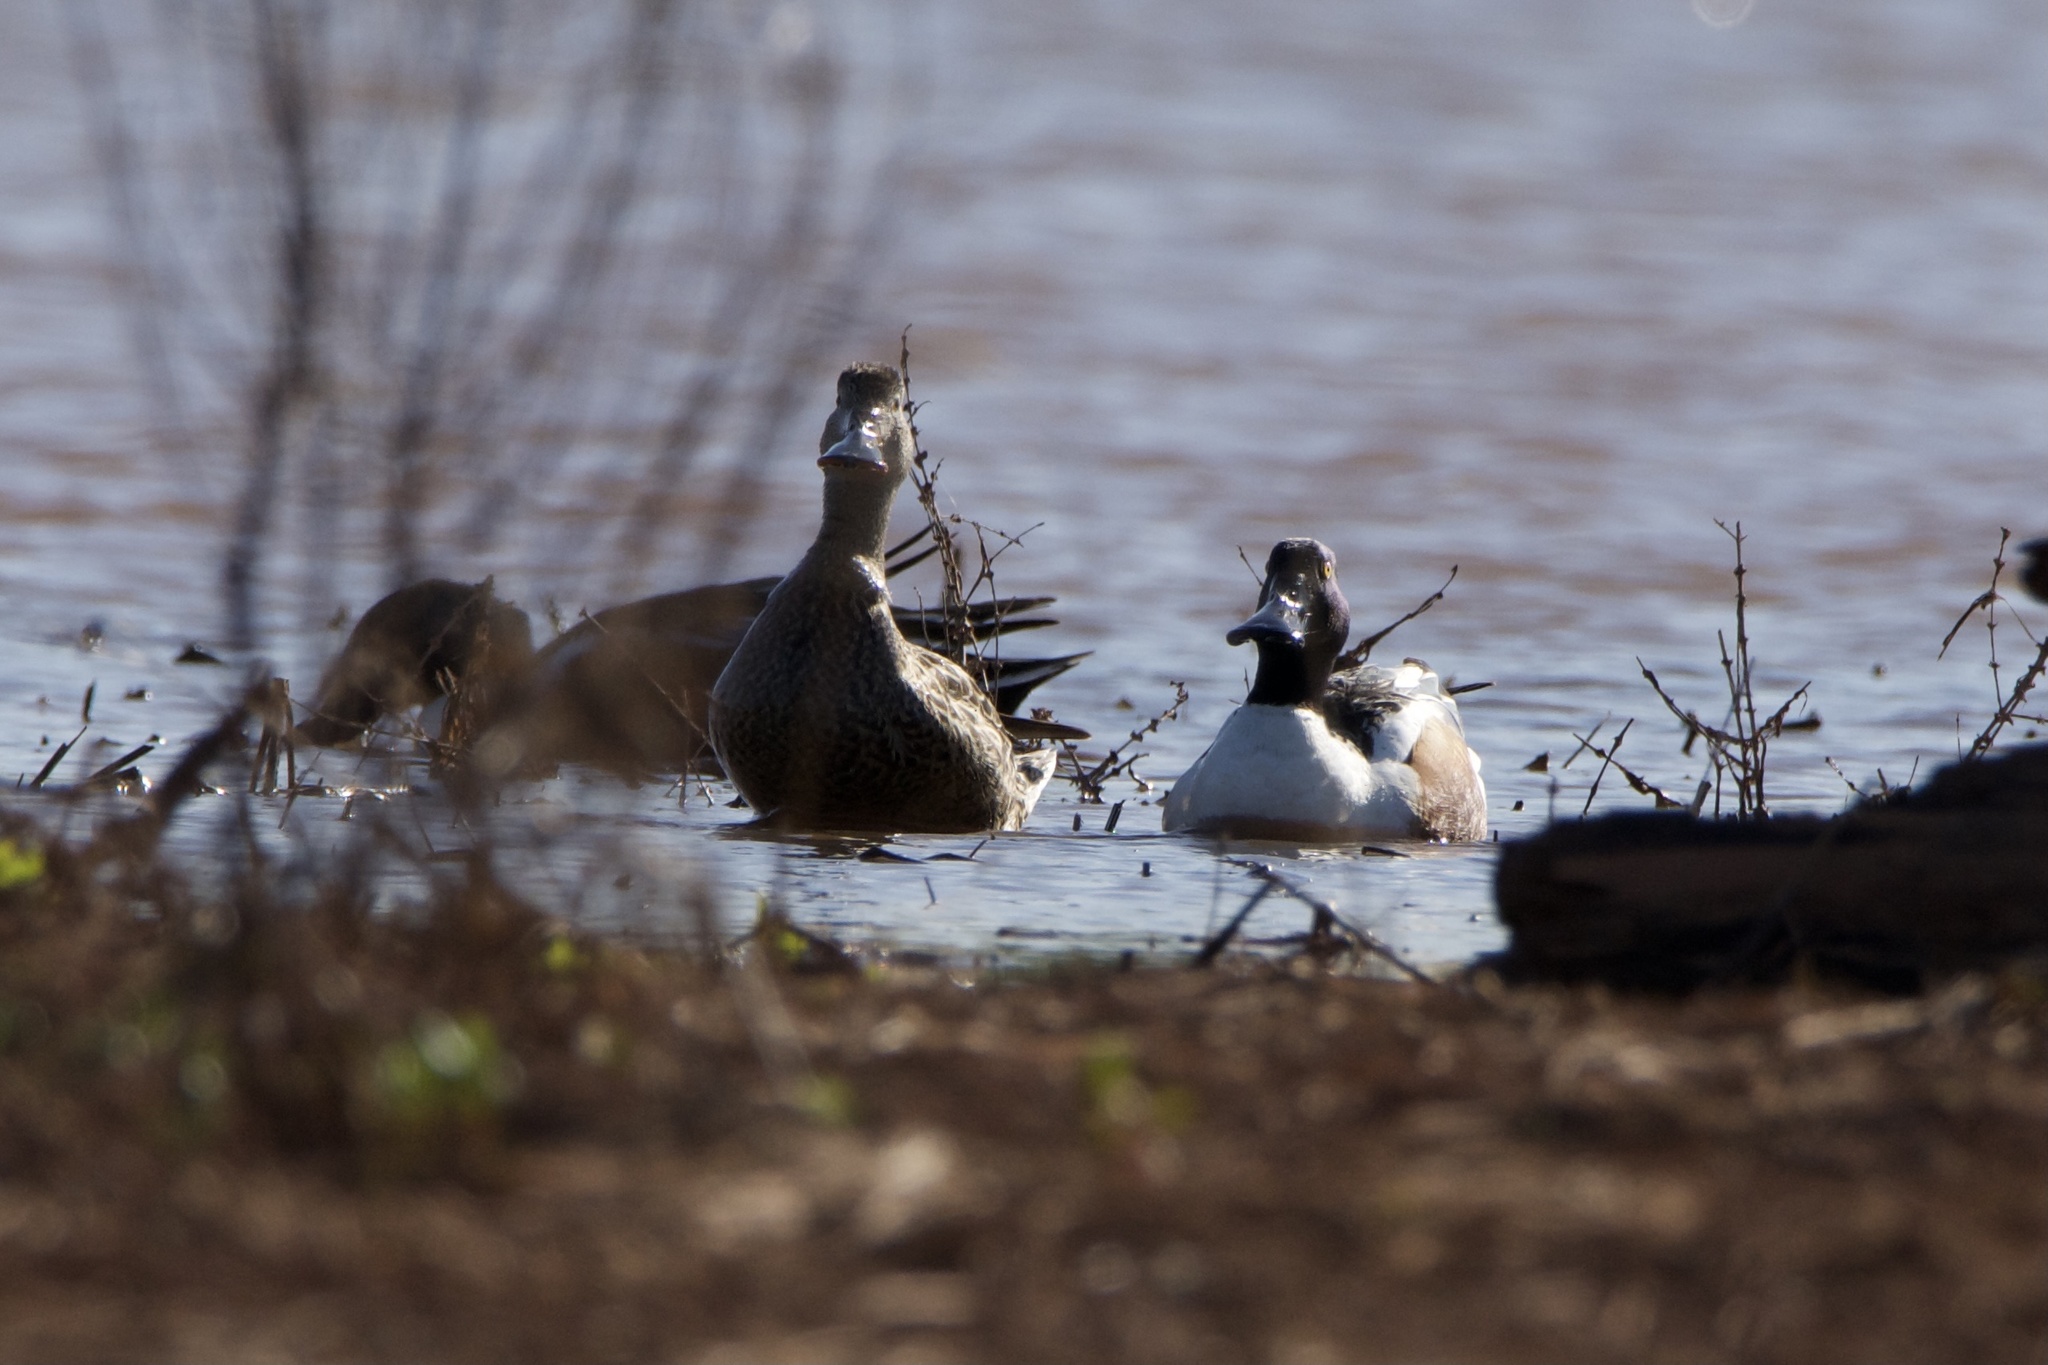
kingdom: Animalia
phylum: Chordata
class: Aves
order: Anseriformes
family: Anatidae
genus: Spatula
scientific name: Spatula clypeata
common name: Northern shoveler
